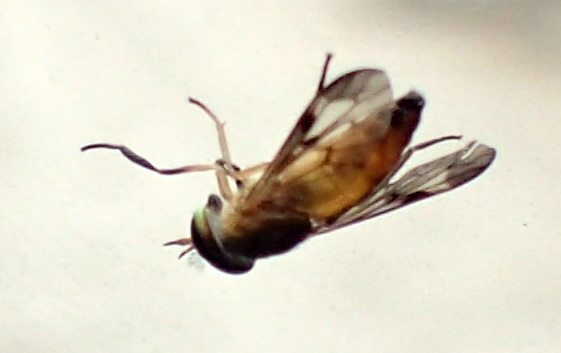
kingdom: Animalia
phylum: Arthropoda
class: Insecta
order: Diptera
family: Tabanidae
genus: Diachlorus
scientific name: Diachlorus ferrugatus
